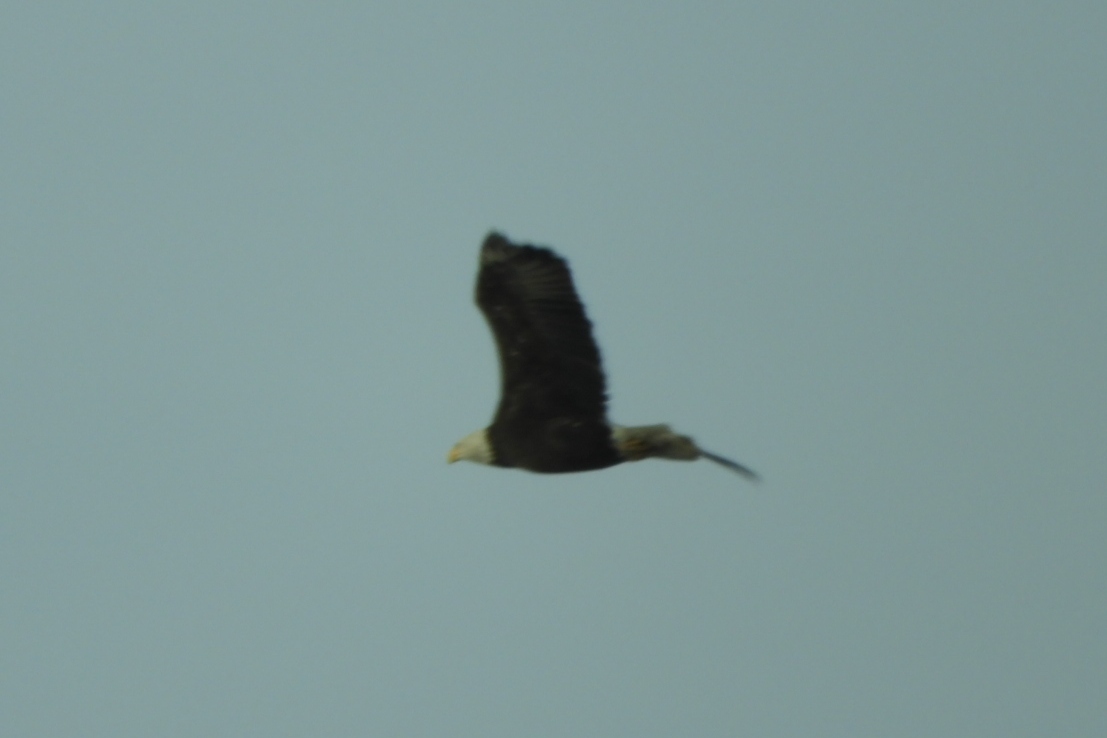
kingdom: Animalia
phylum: Chordata
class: Aves
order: Accipitriformes
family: Accipitridae
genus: Haliaeetus
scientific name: Haliaeetus leucocephalus
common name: Bald eagle
